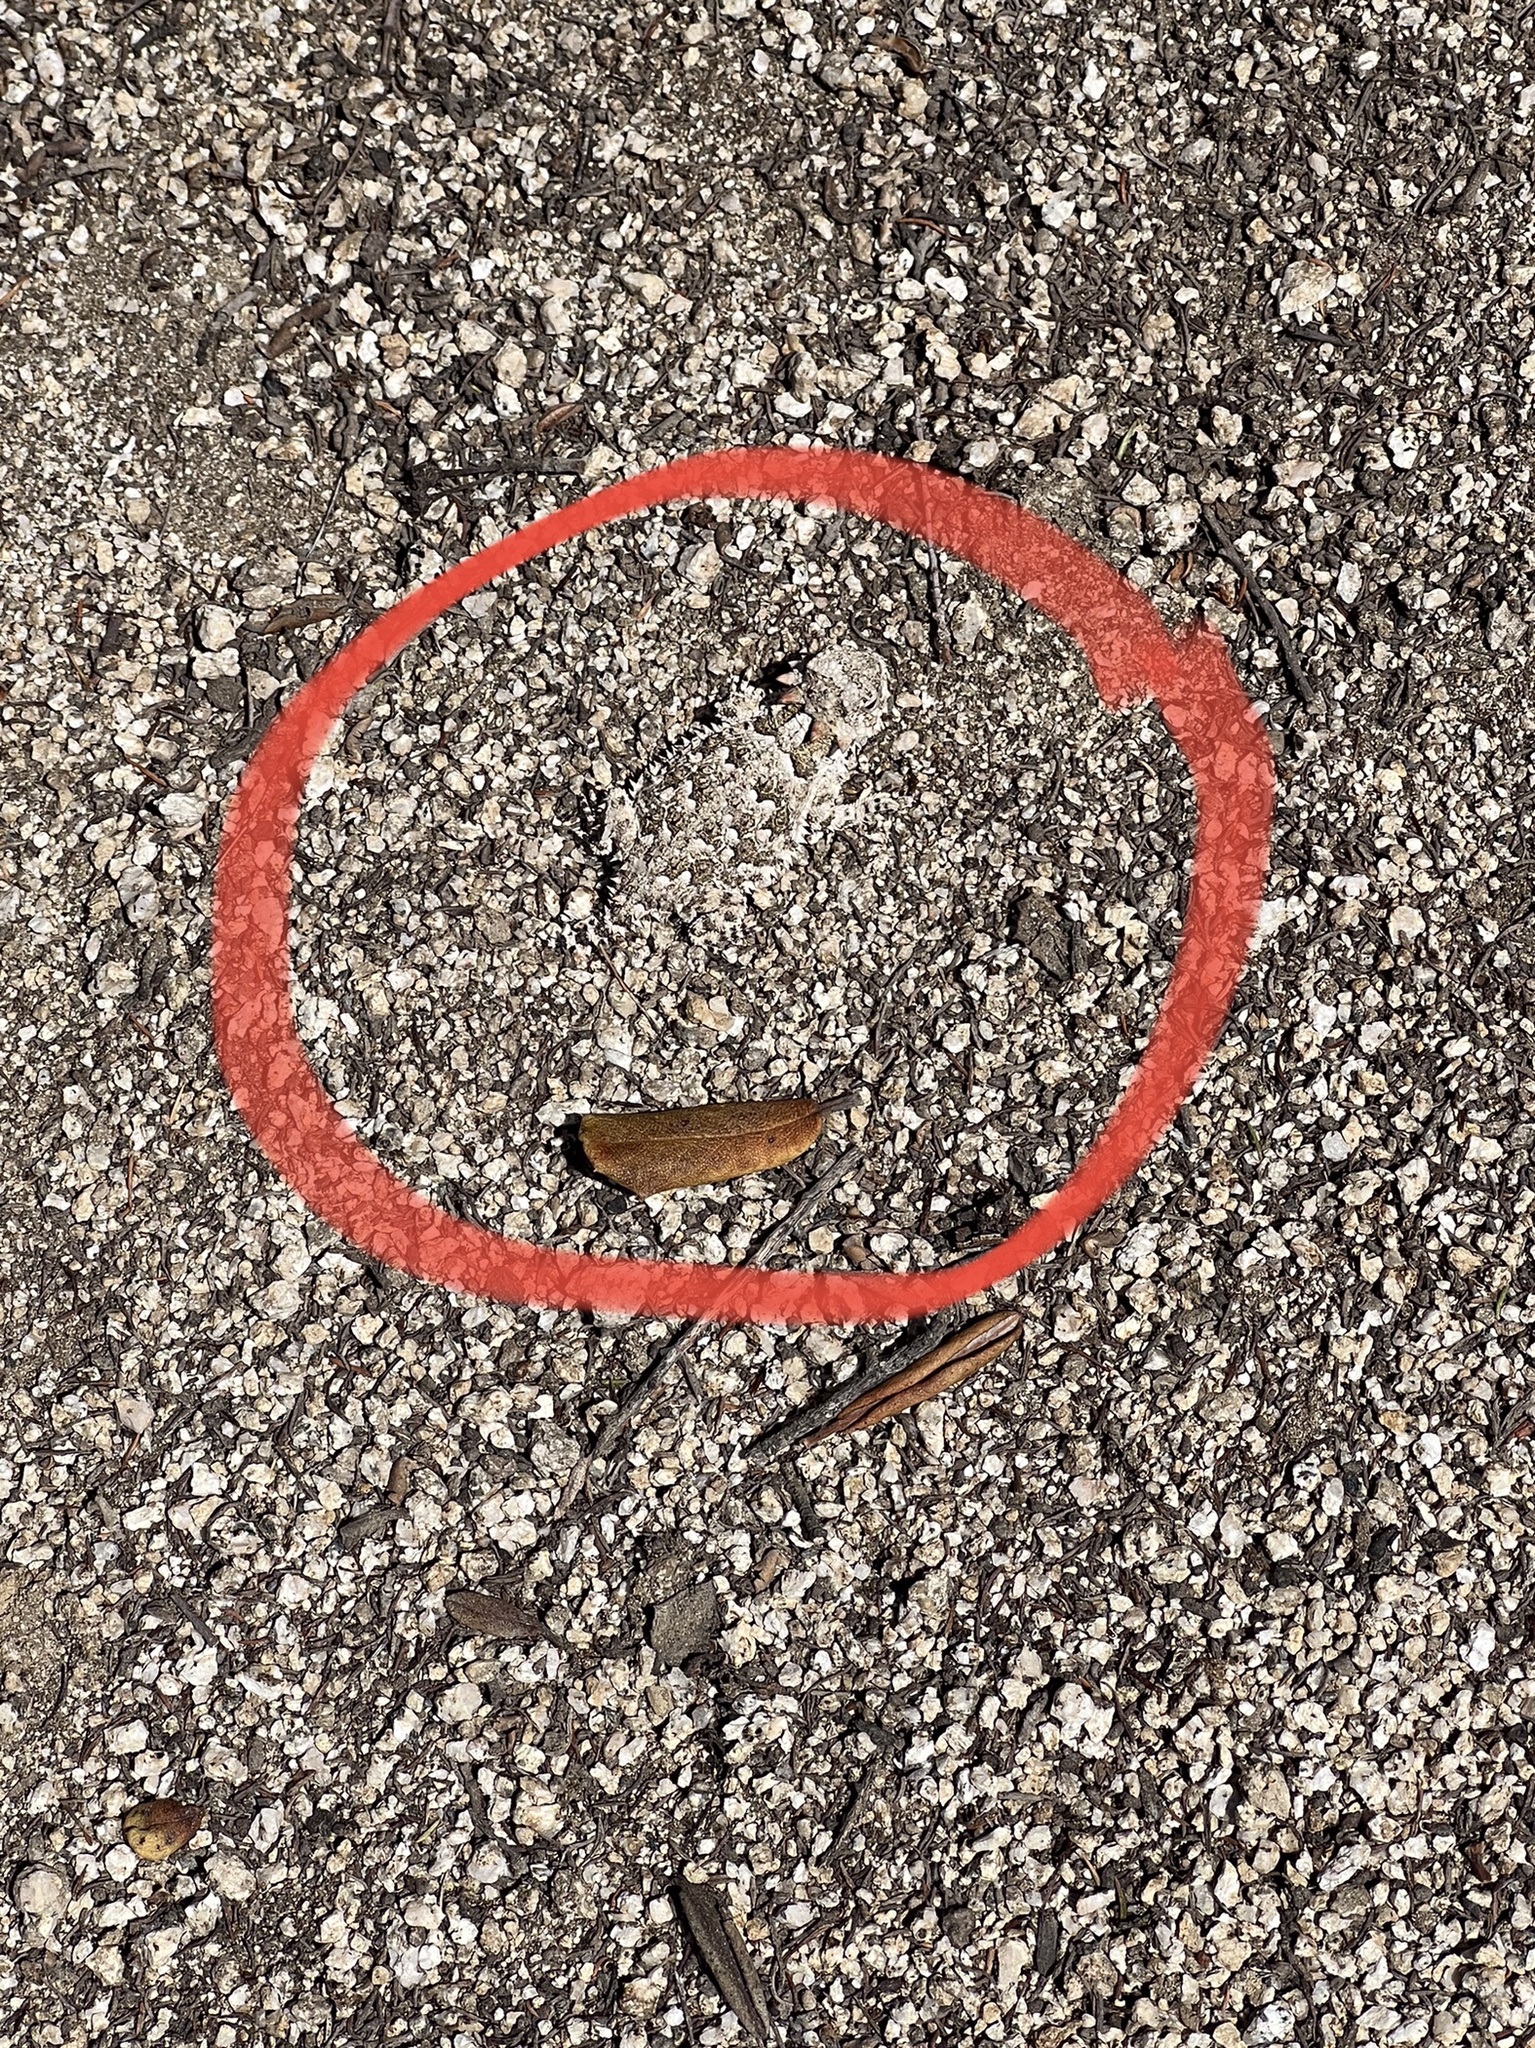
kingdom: Animalia
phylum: Chordata
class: Squamata
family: Phrynosomatidae
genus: Phrynosoma
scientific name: Phrynosoma blainvillii
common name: San diego horned lizard
